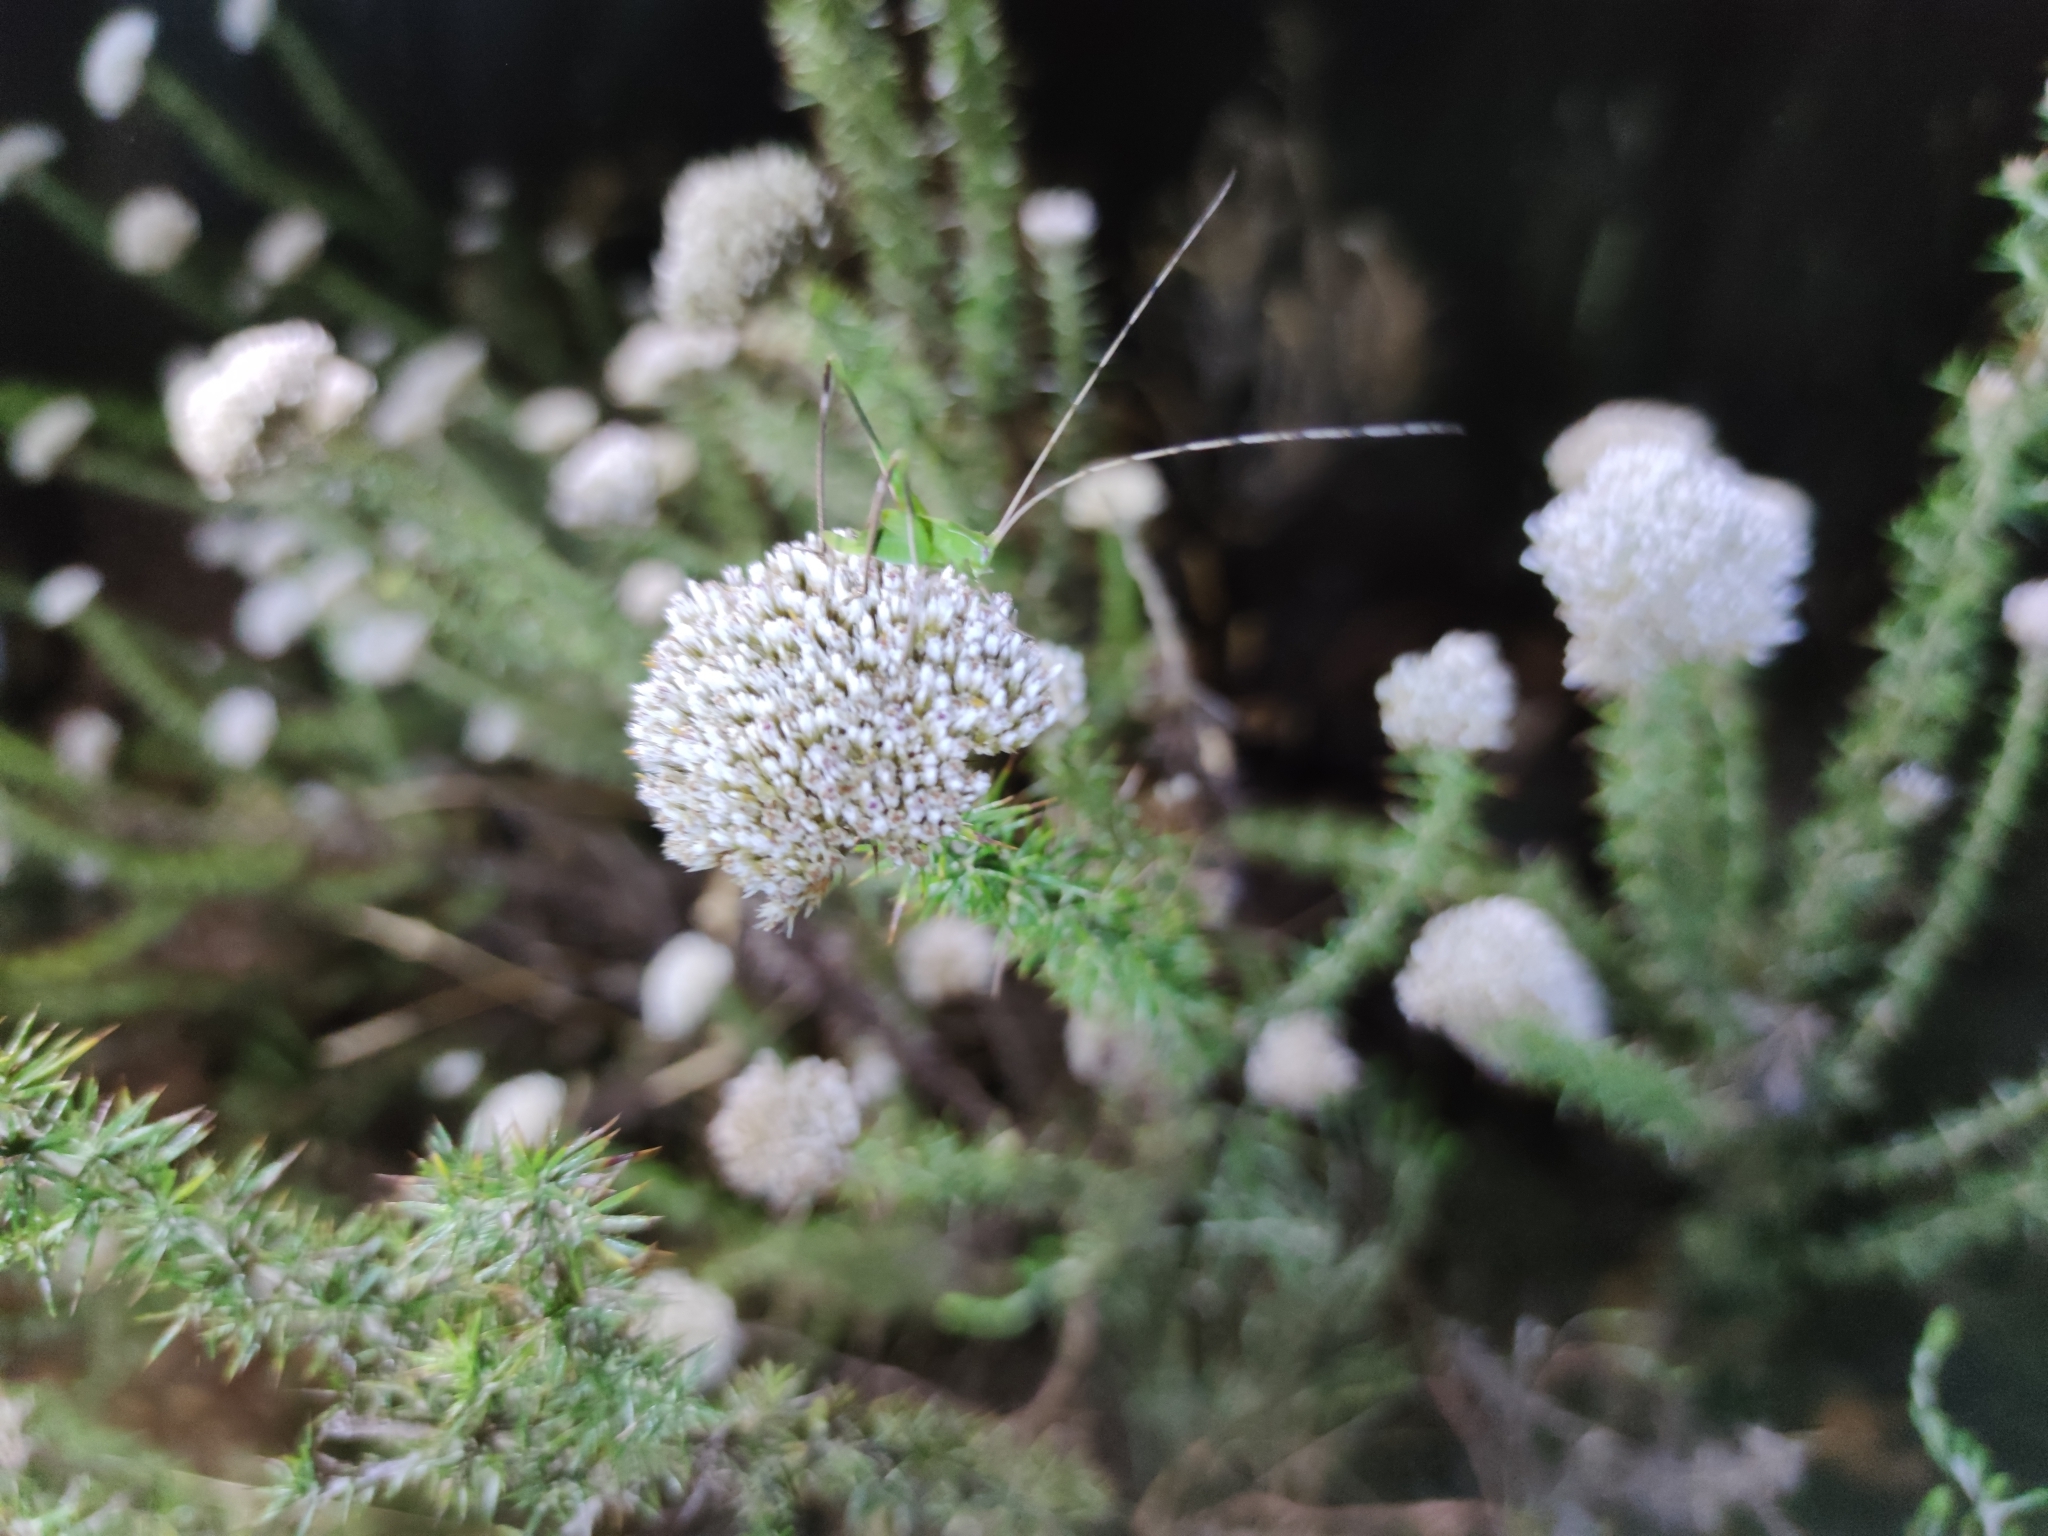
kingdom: Animalia
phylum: Arthropoda
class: Insecta
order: Orthoptera
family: Tettigoniidae
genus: Tylopsis
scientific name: Tylopsis continua
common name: Common grass katydid
